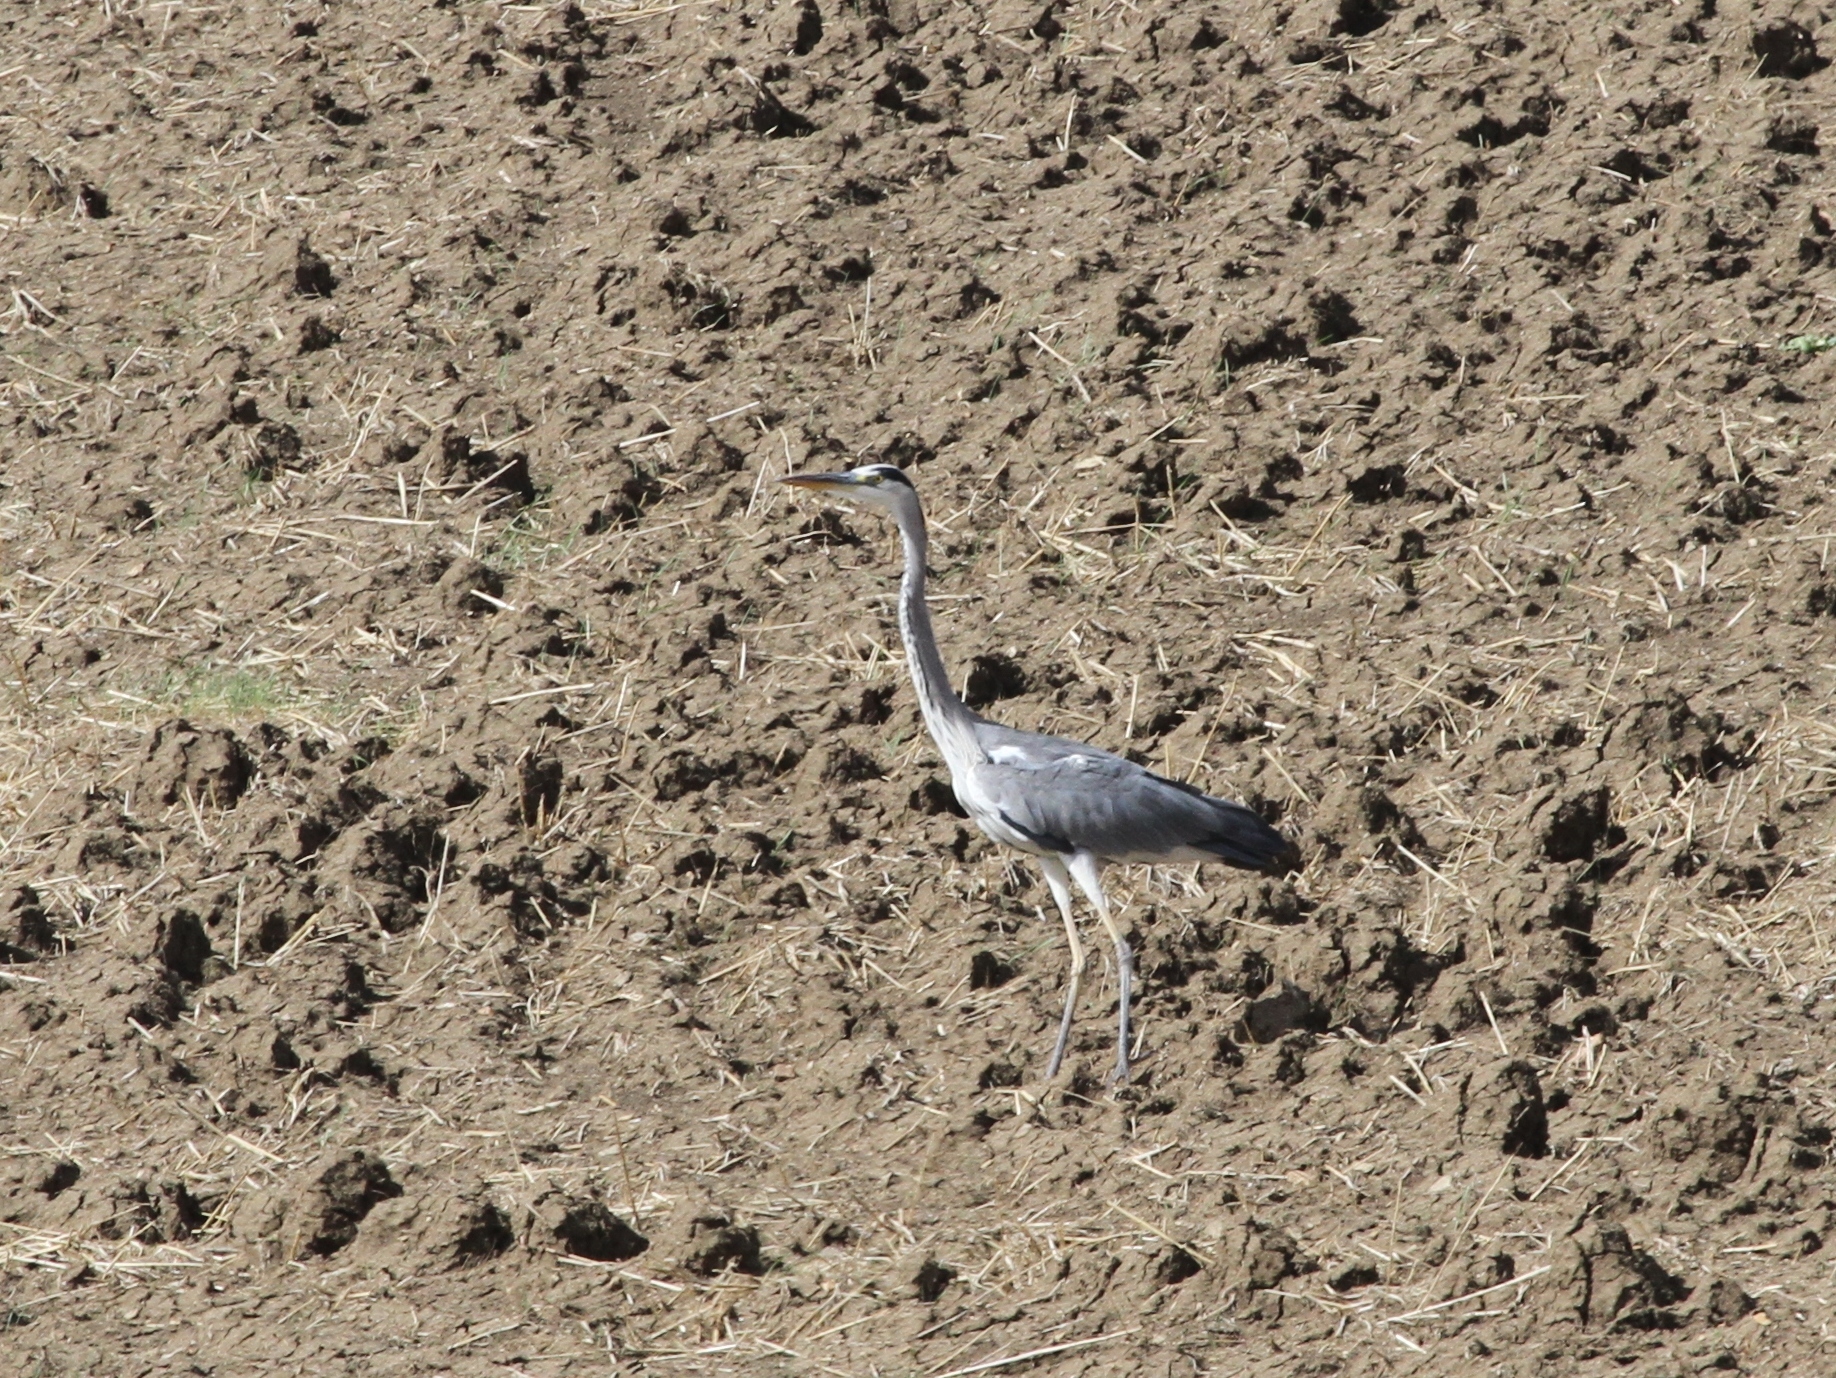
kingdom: Animalia
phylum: Chordata
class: Aves
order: Pelecaniformes
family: Ardeidae
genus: Ardea
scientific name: Ardea cinerea
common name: Grey heron
